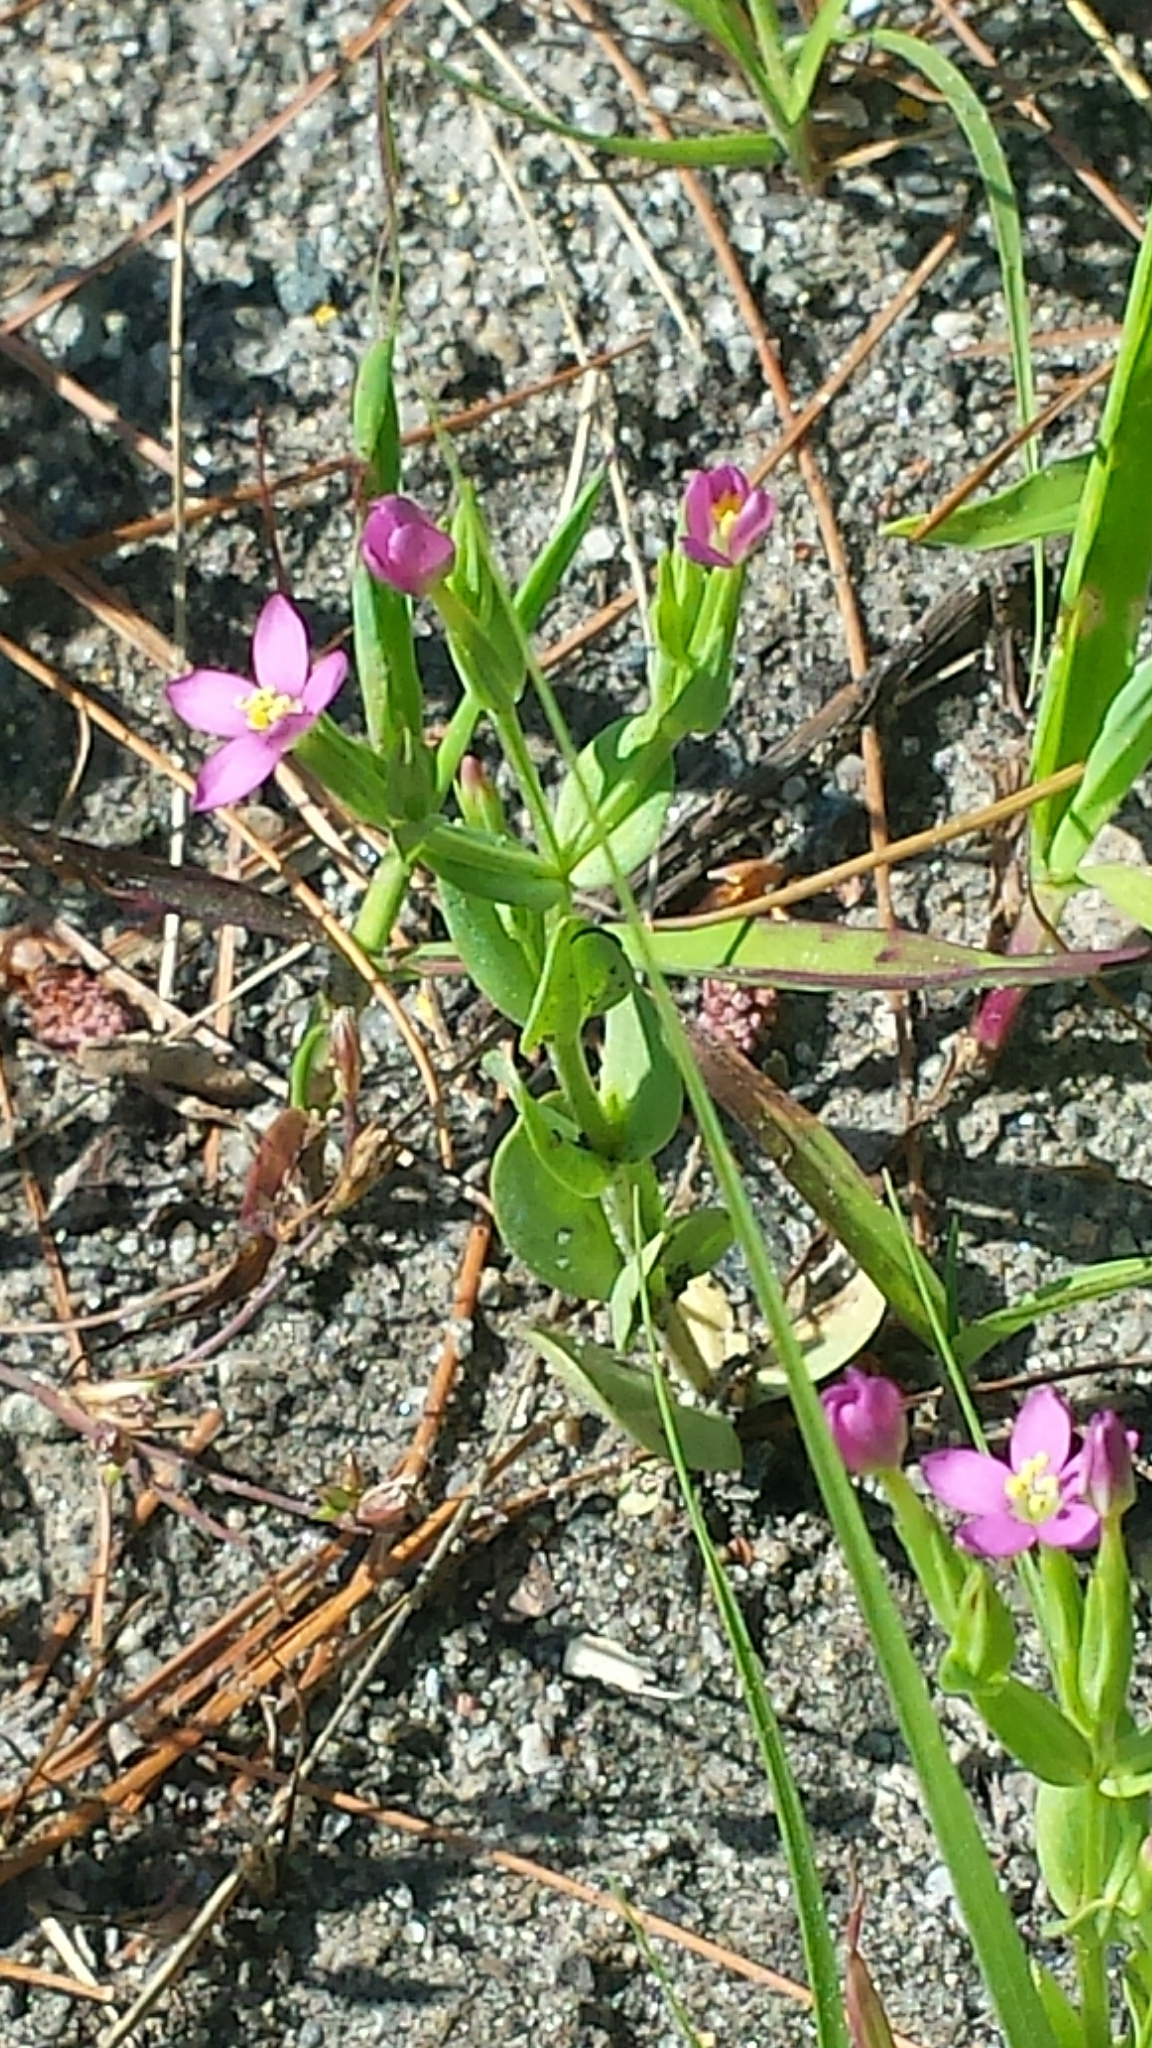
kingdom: Plantae
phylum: Tracheophyta
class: Magnoliopsida
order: Gentianales
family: Gentianaceae
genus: Centaurium
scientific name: Centaurium erythraea
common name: Common centaury
